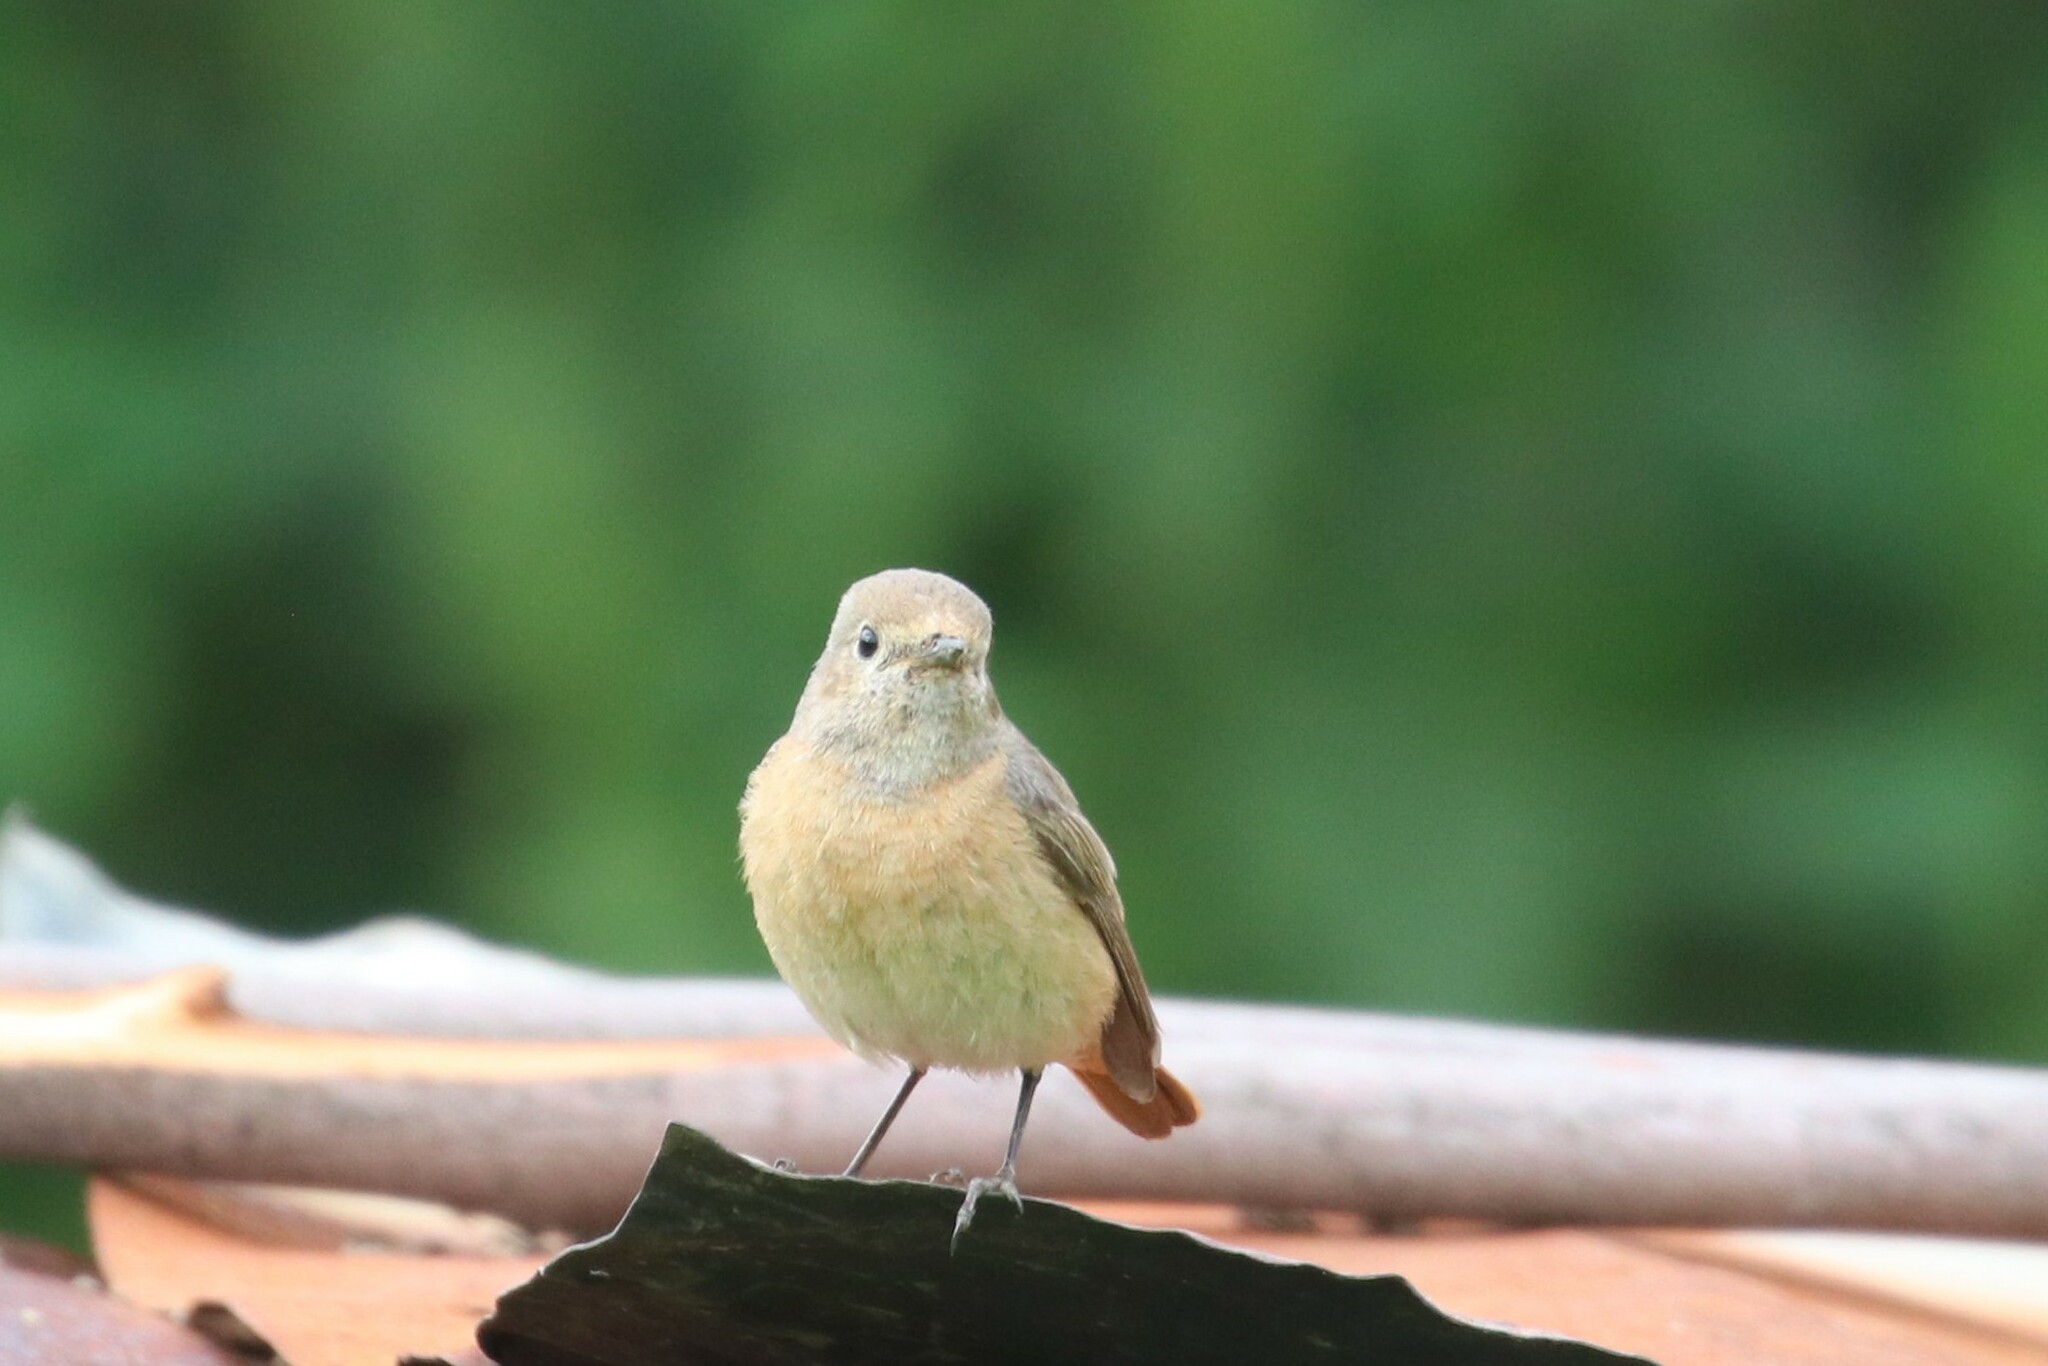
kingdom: Animalia
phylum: Chordata
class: Aves
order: Passeriformes
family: Muscicapidae
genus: Phoenicurus
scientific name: Phoenicurus phoenicurus
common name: Common redstart
